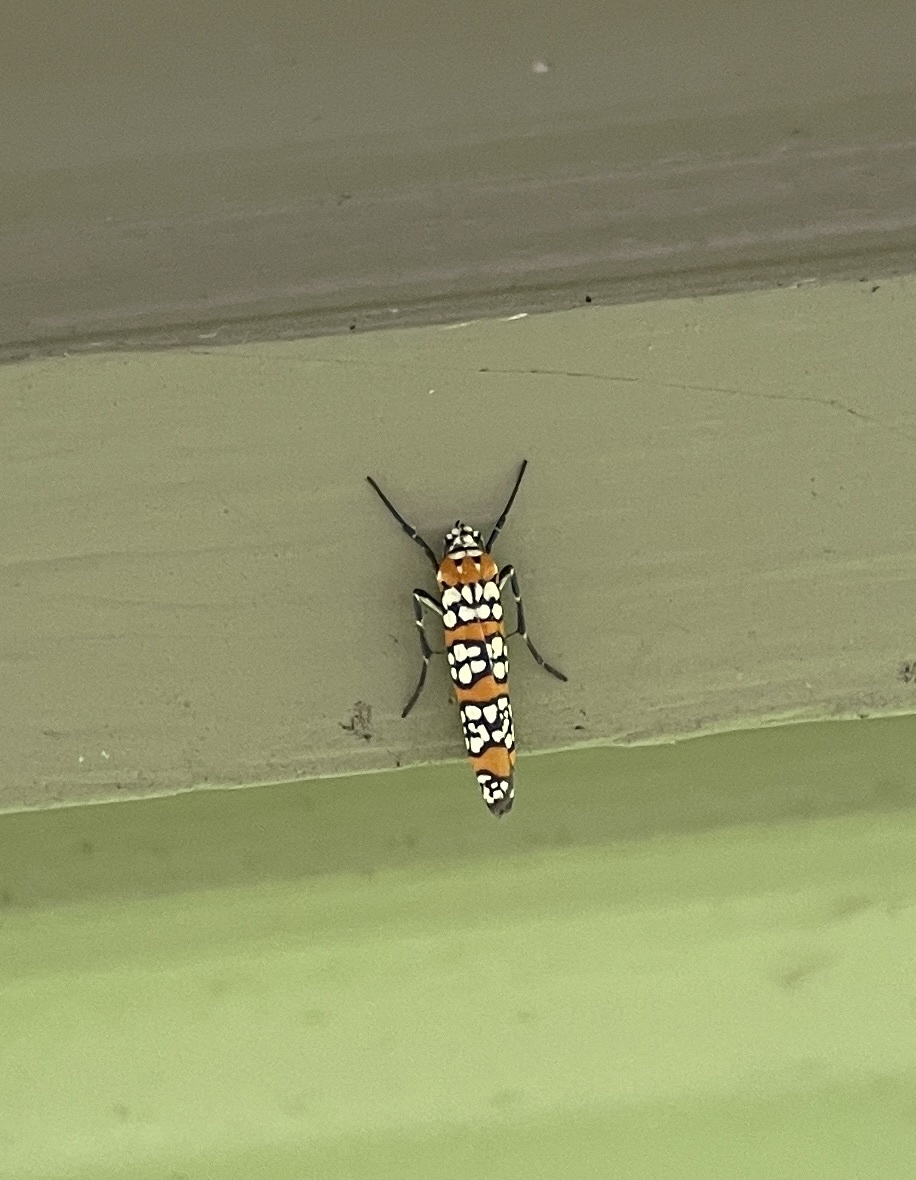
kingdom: Animalia
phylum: Arthropoda
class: Insecta
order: Lepidoptera
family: Attevidae
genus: Atteva
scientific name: Atteva punctella
